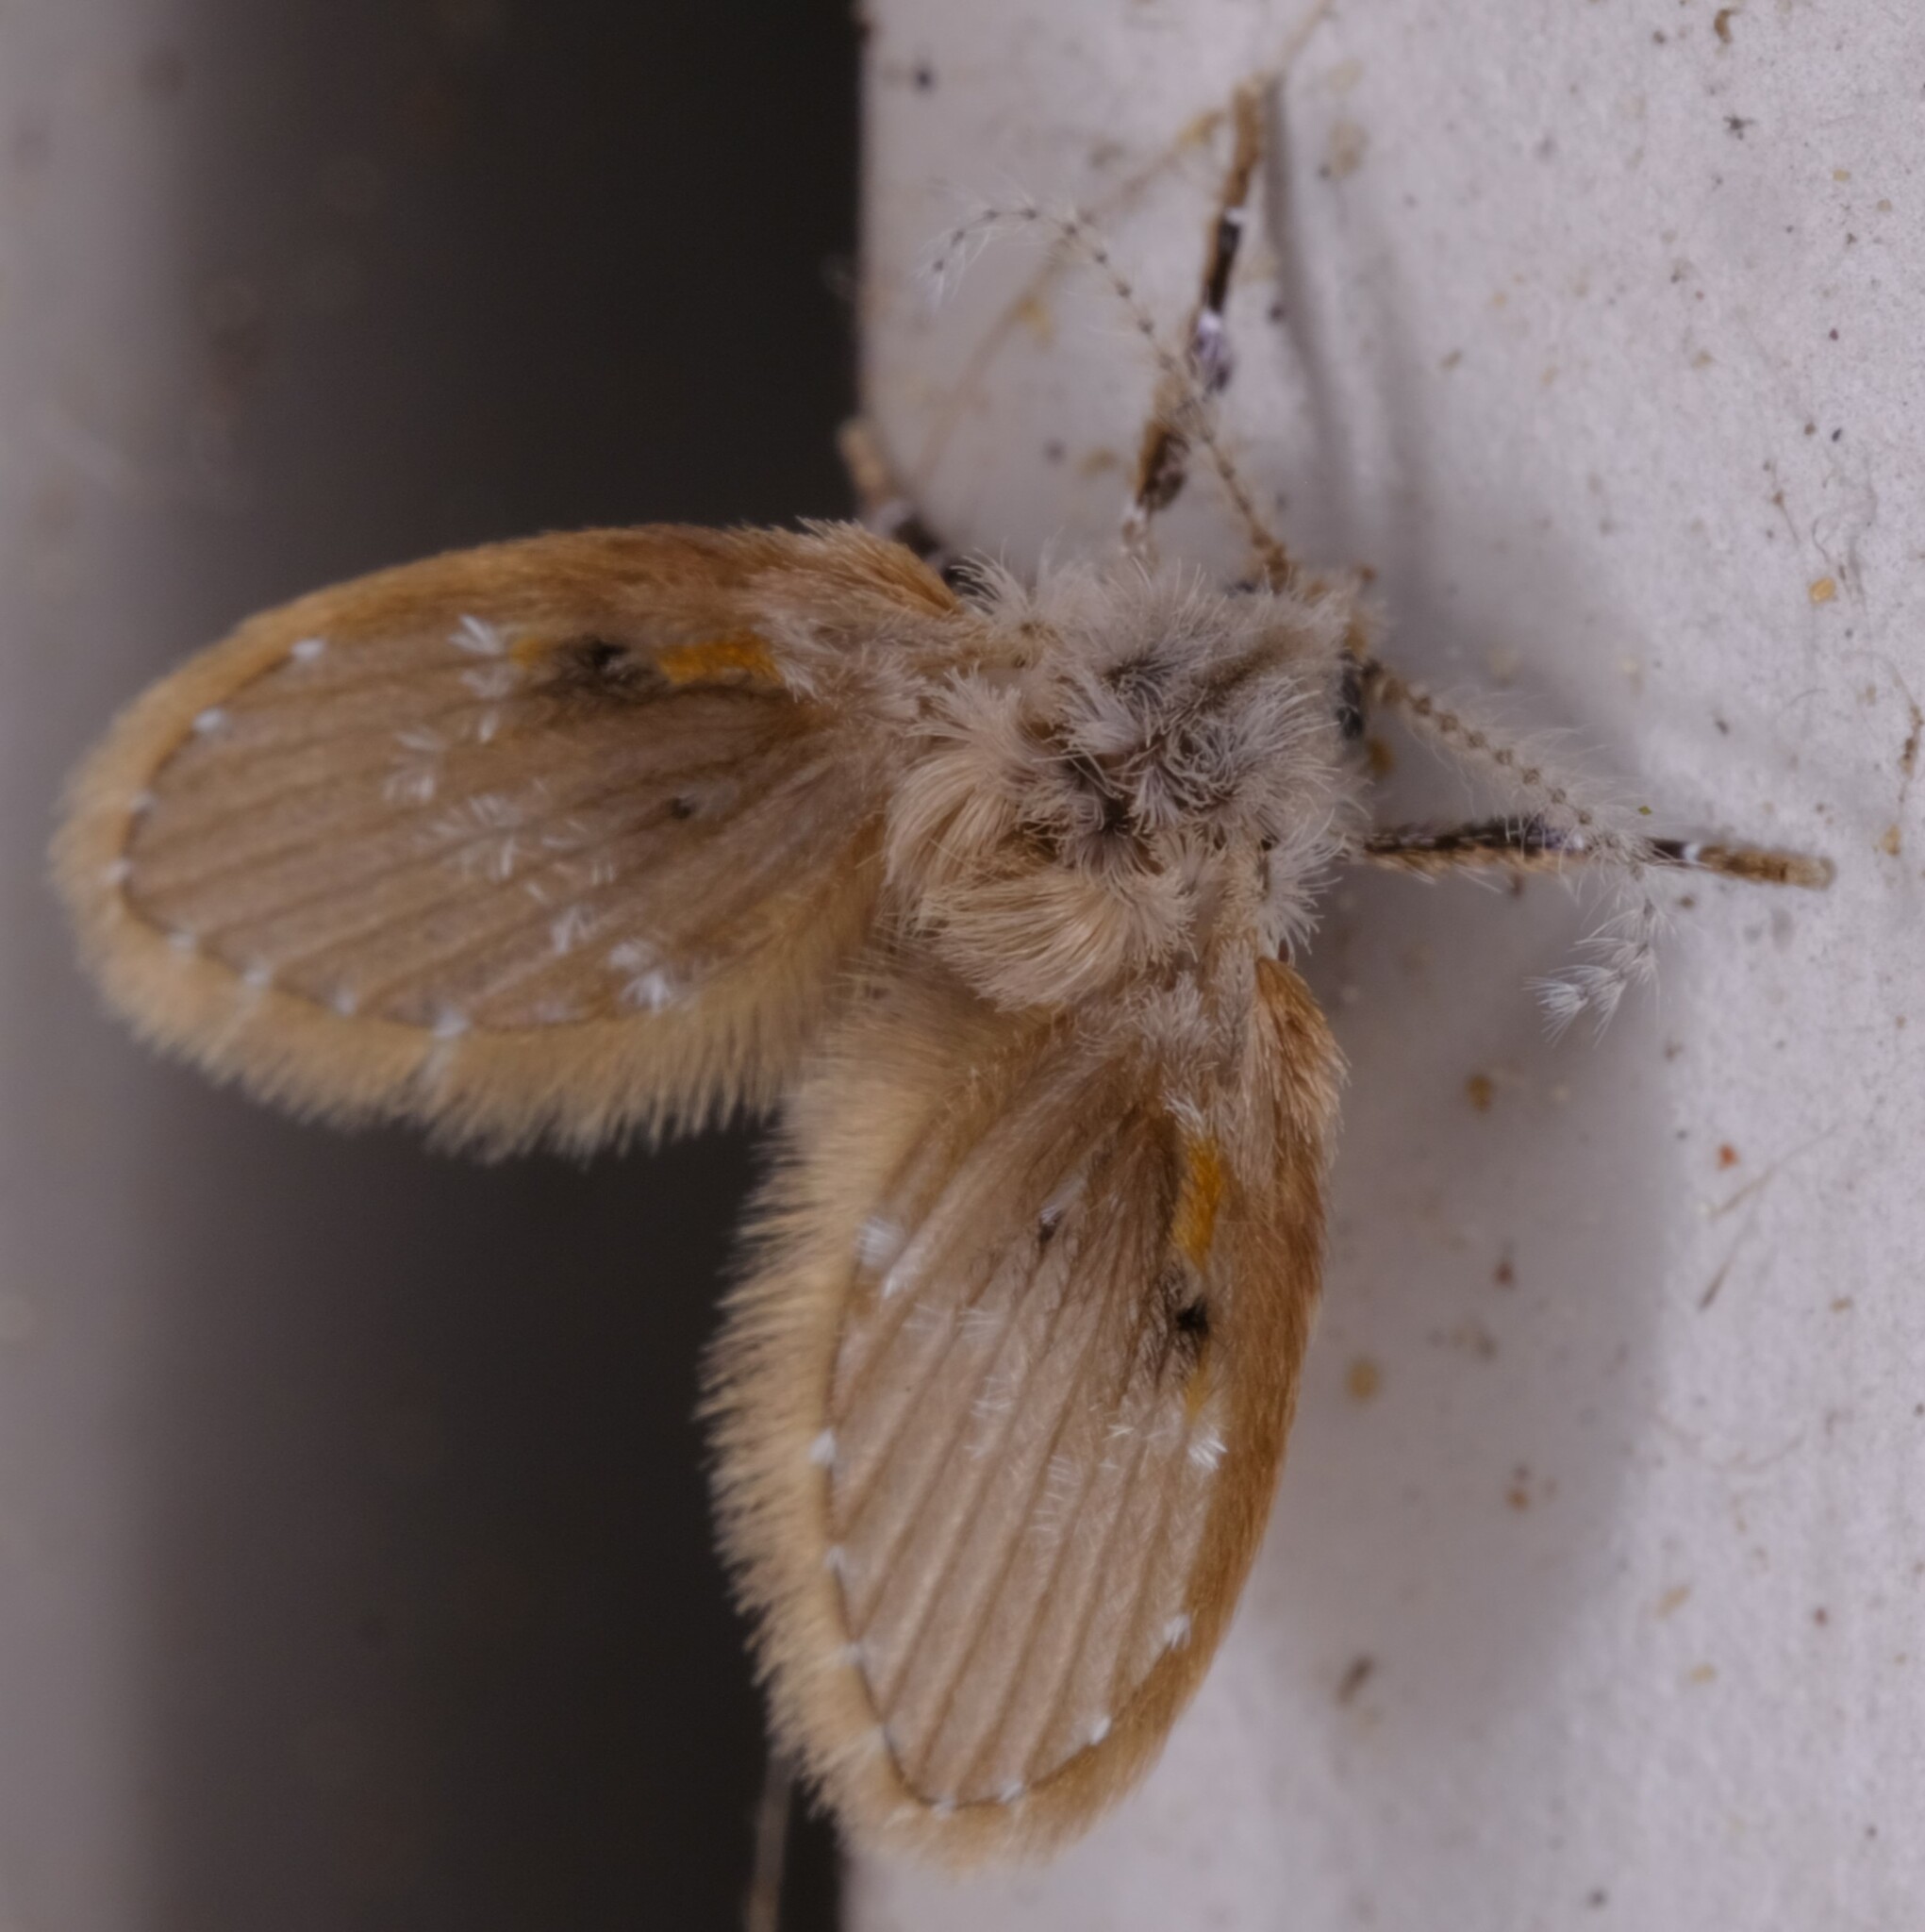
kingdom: Animalia
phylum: Arthropoda
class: Insecta
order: Diptera
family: Psychodidae
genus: Clogmia
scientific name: Clogmia albipunctatus
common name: White-spotted moth fly
